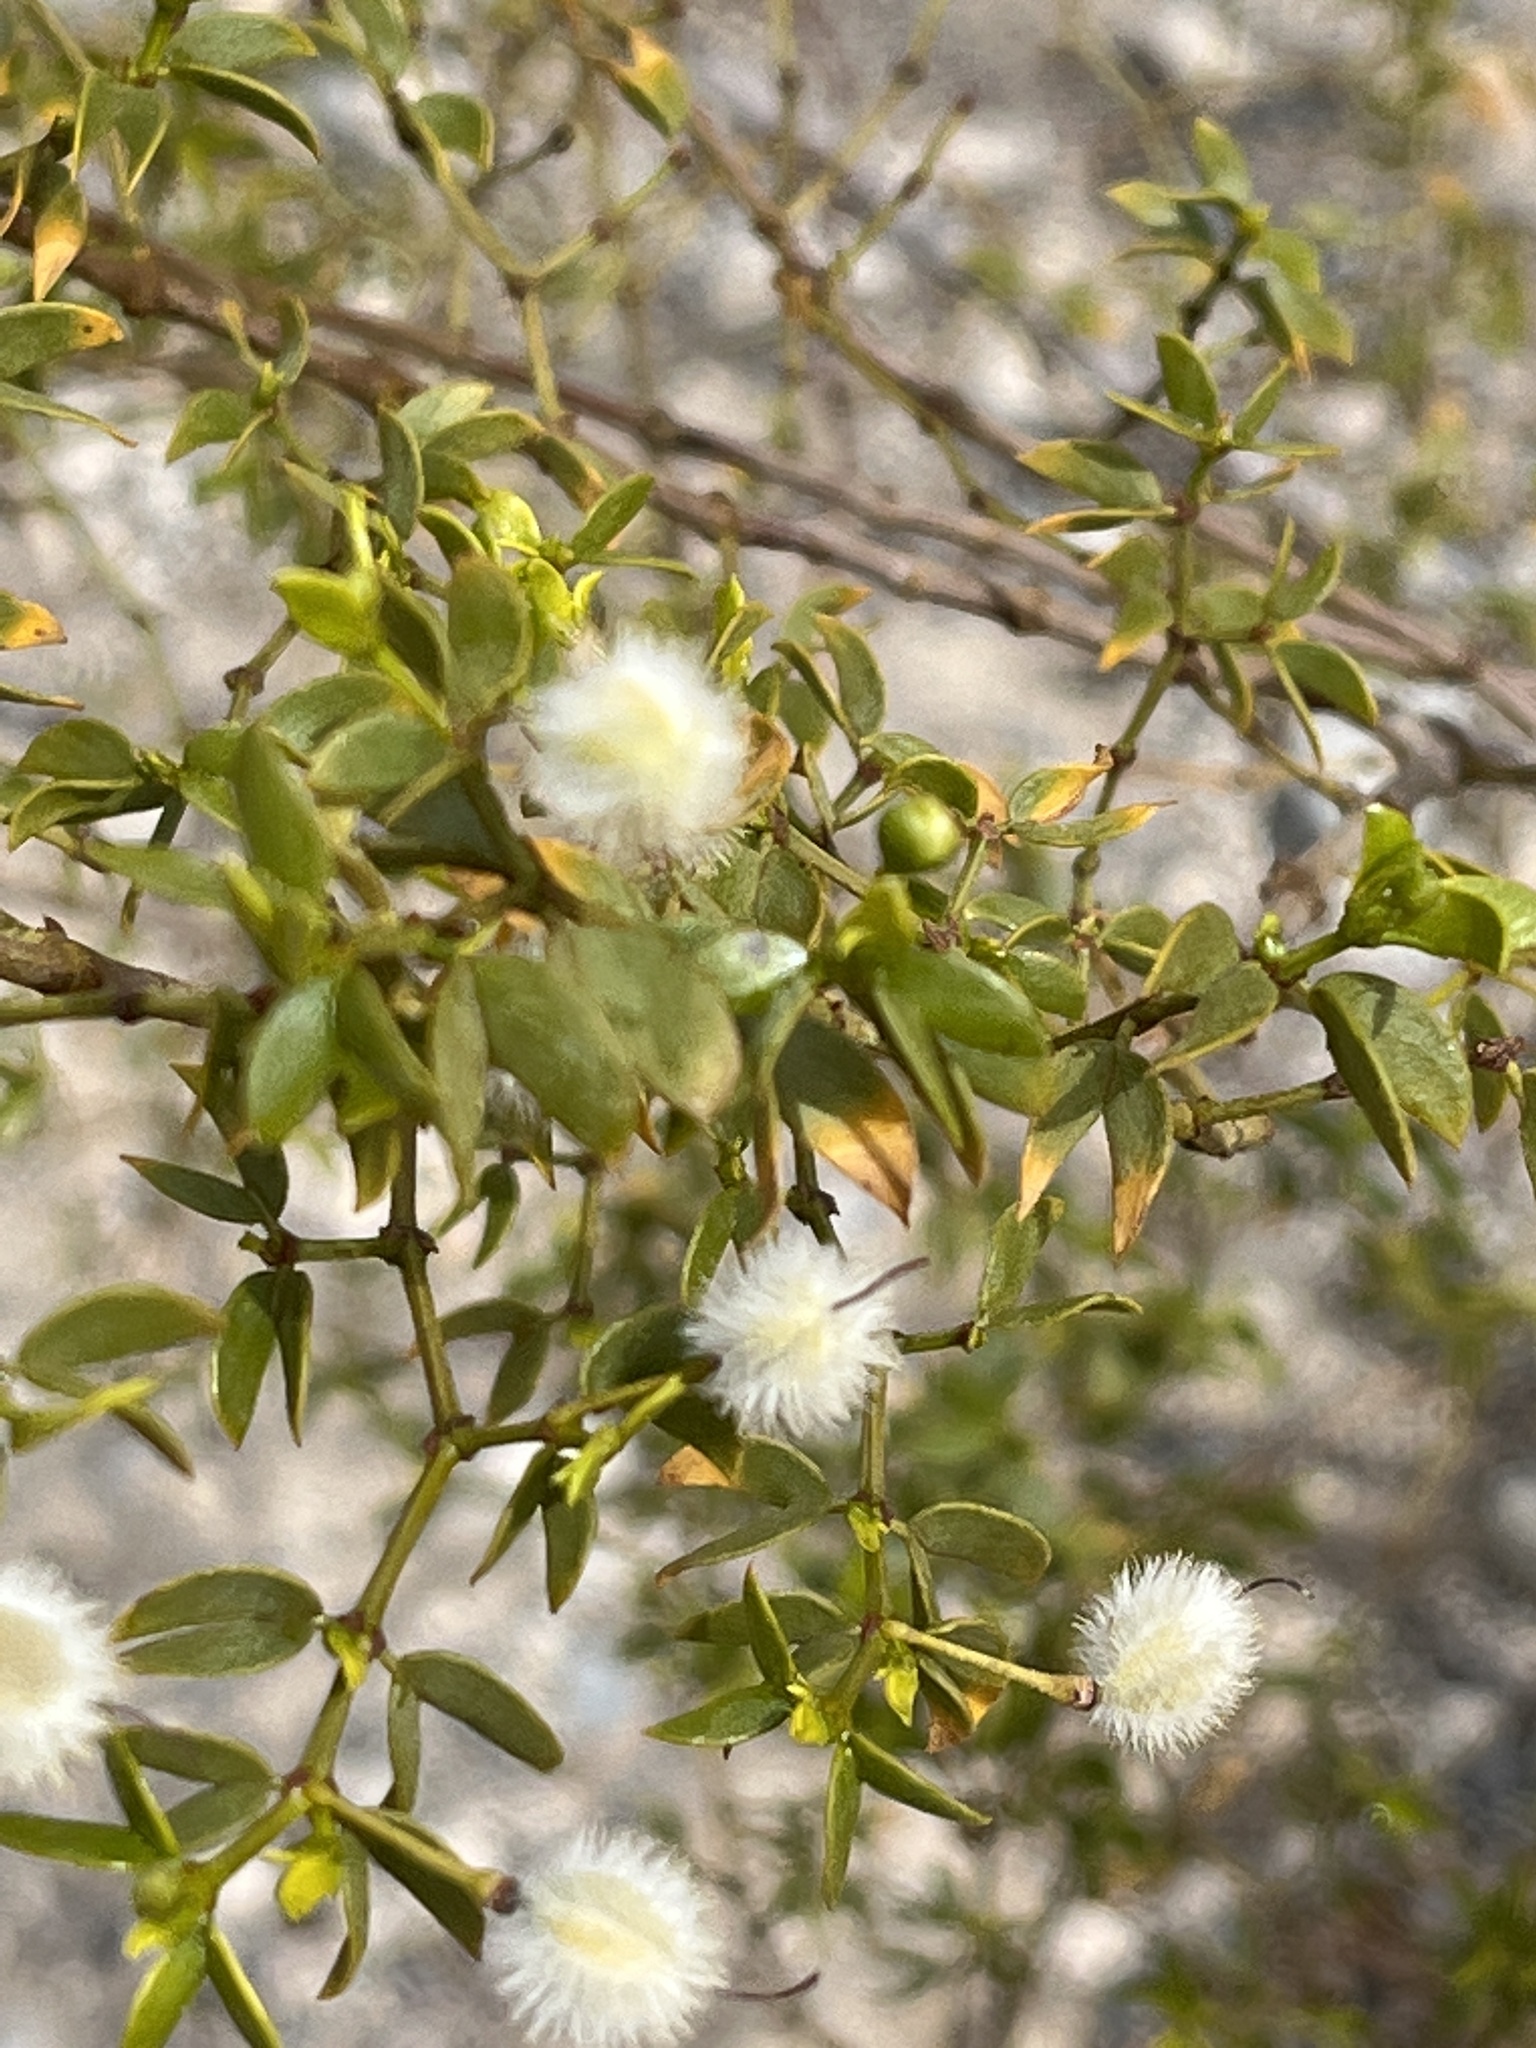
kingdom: Plantae
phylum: Tracheophyta
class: Magnoliopsida
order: Zygophyllales
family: Zygophyllaceae
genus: Larrea
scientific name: Larrea tridentata
